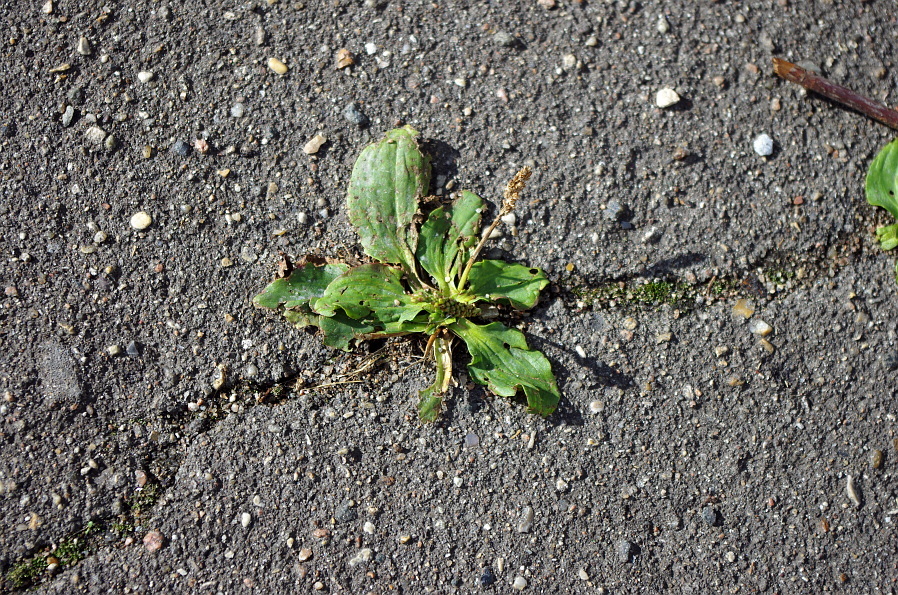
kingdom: Plantae
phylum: Tracheophyta
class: Magnoliopsida
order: Lamiales
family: Plantaginaceae
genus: Plantago
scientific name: Plantago major
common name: Common plantain
